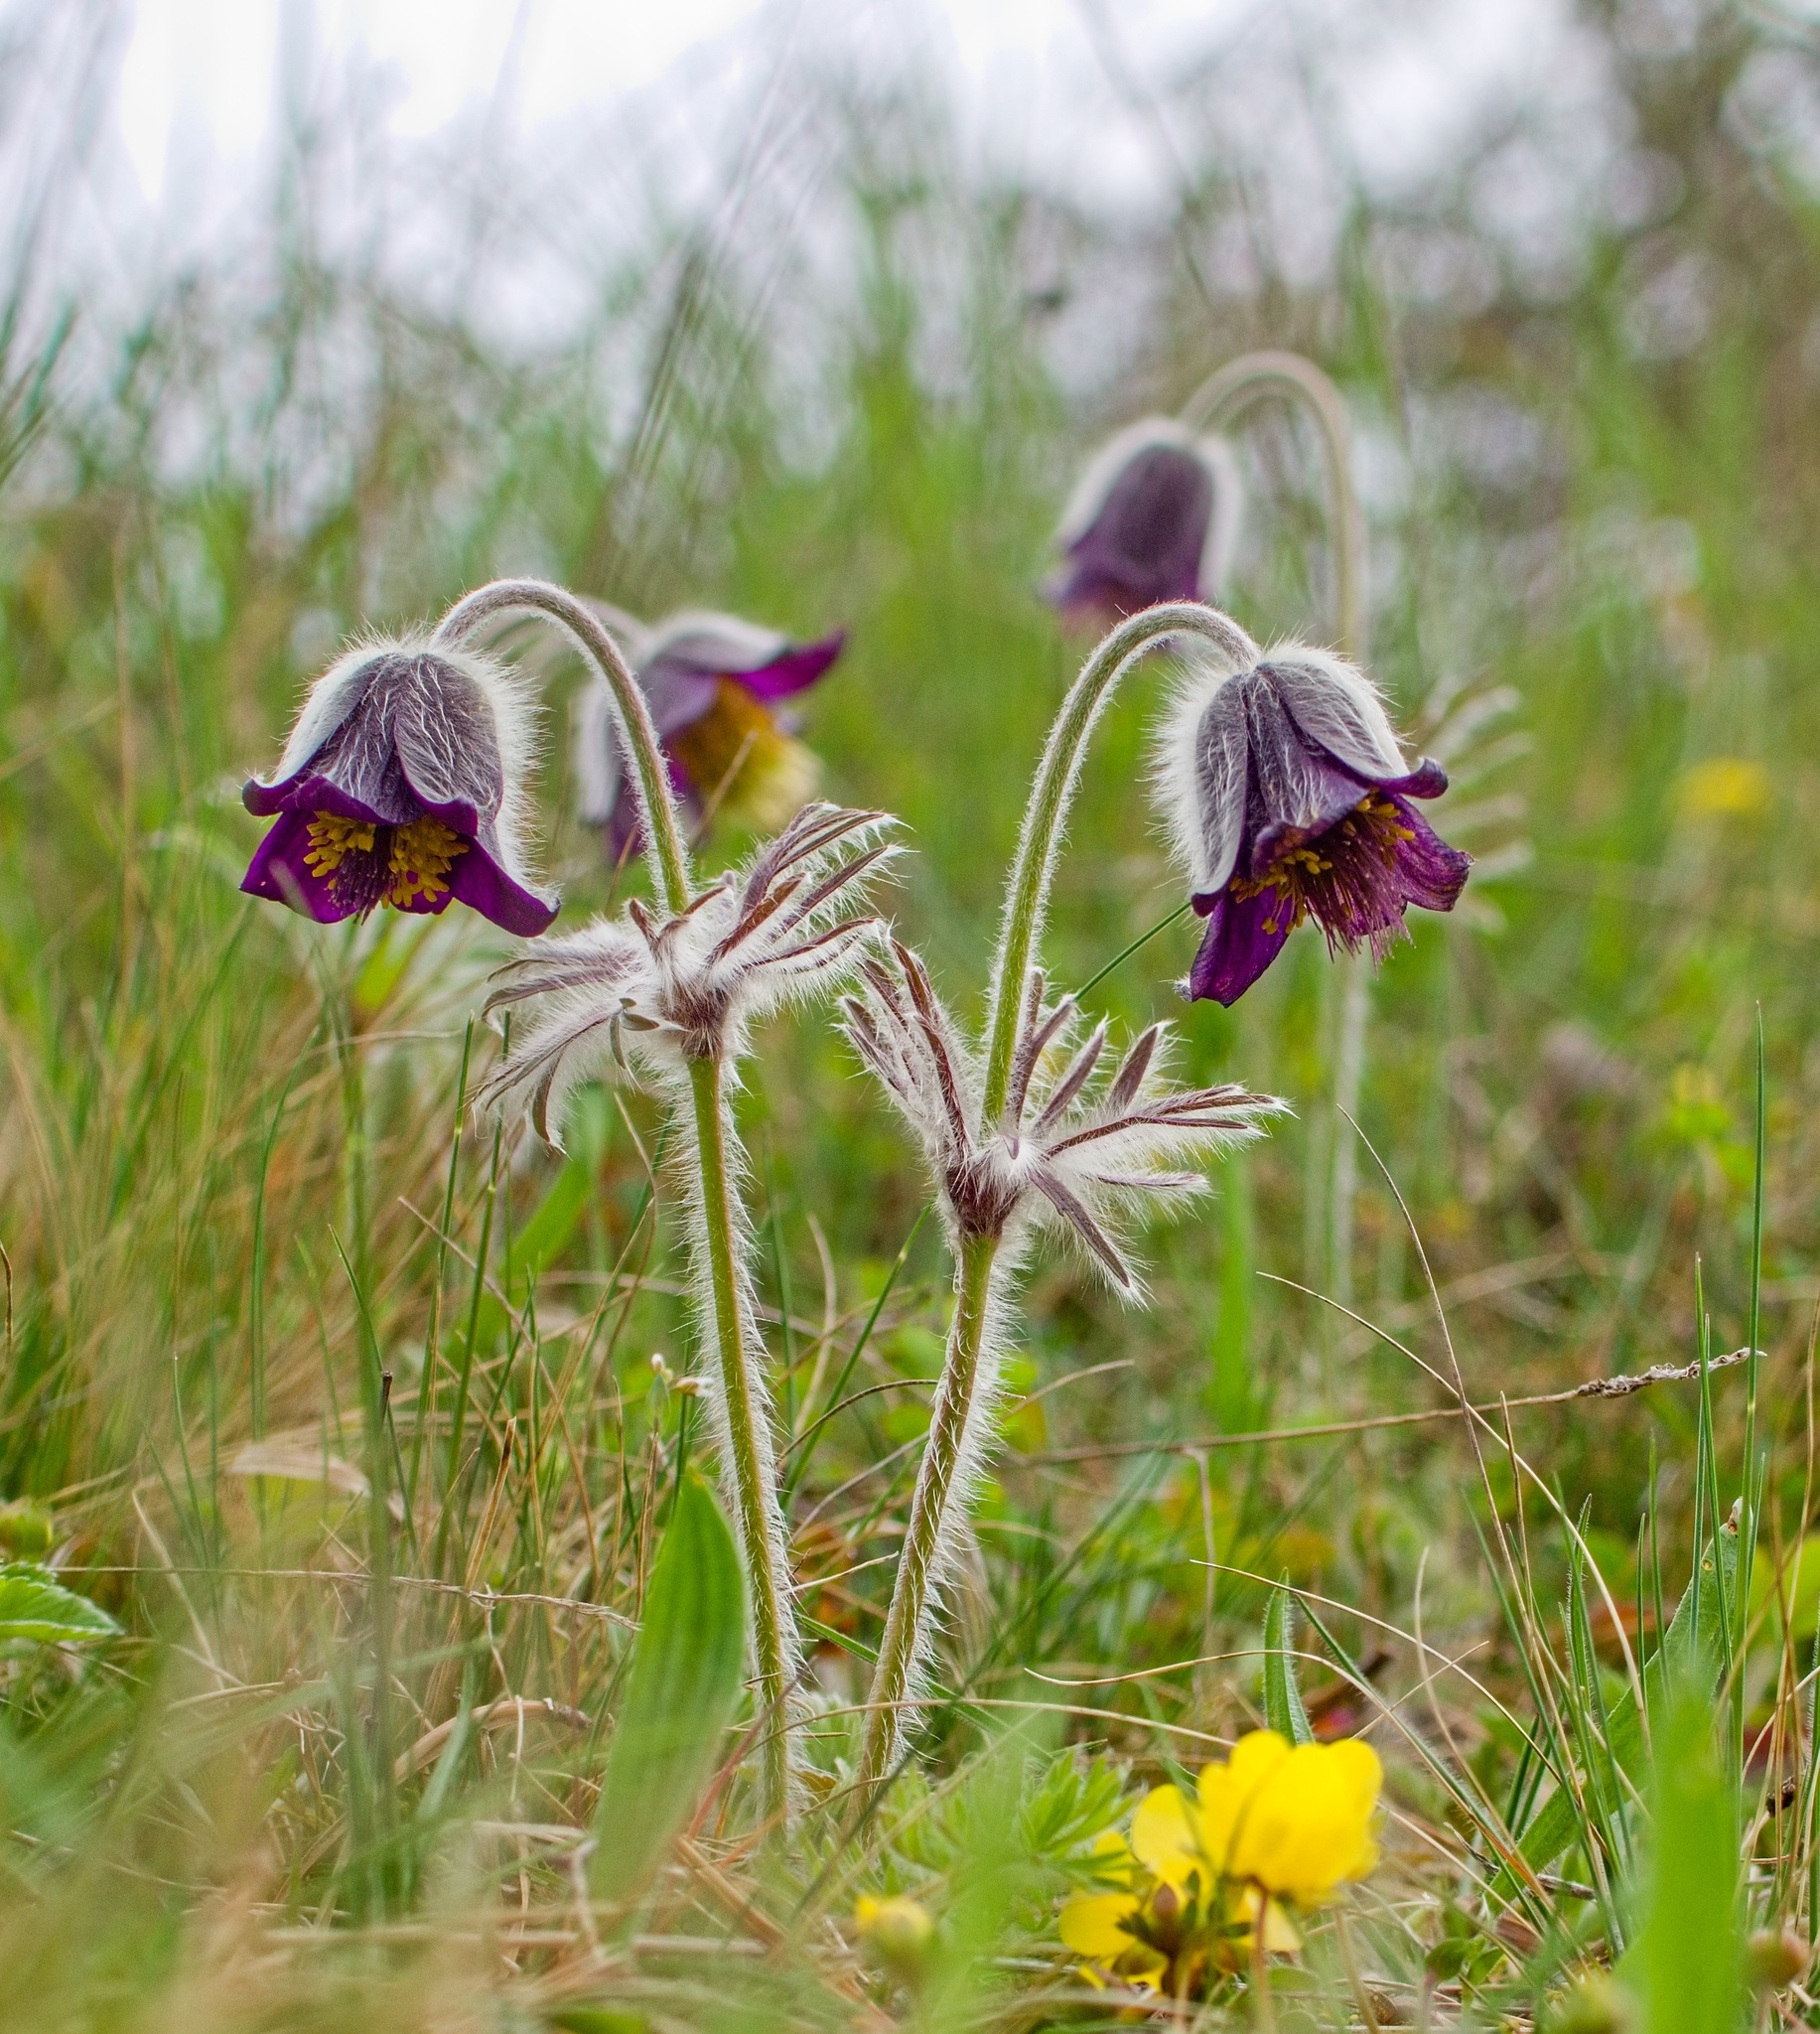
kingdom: Plantae
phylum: Tracheophyta
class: Magnoliopsida
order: Ranunculales
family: Ranunculaceae
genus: Pulsatilla
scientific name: Pulsatilla pratensis
